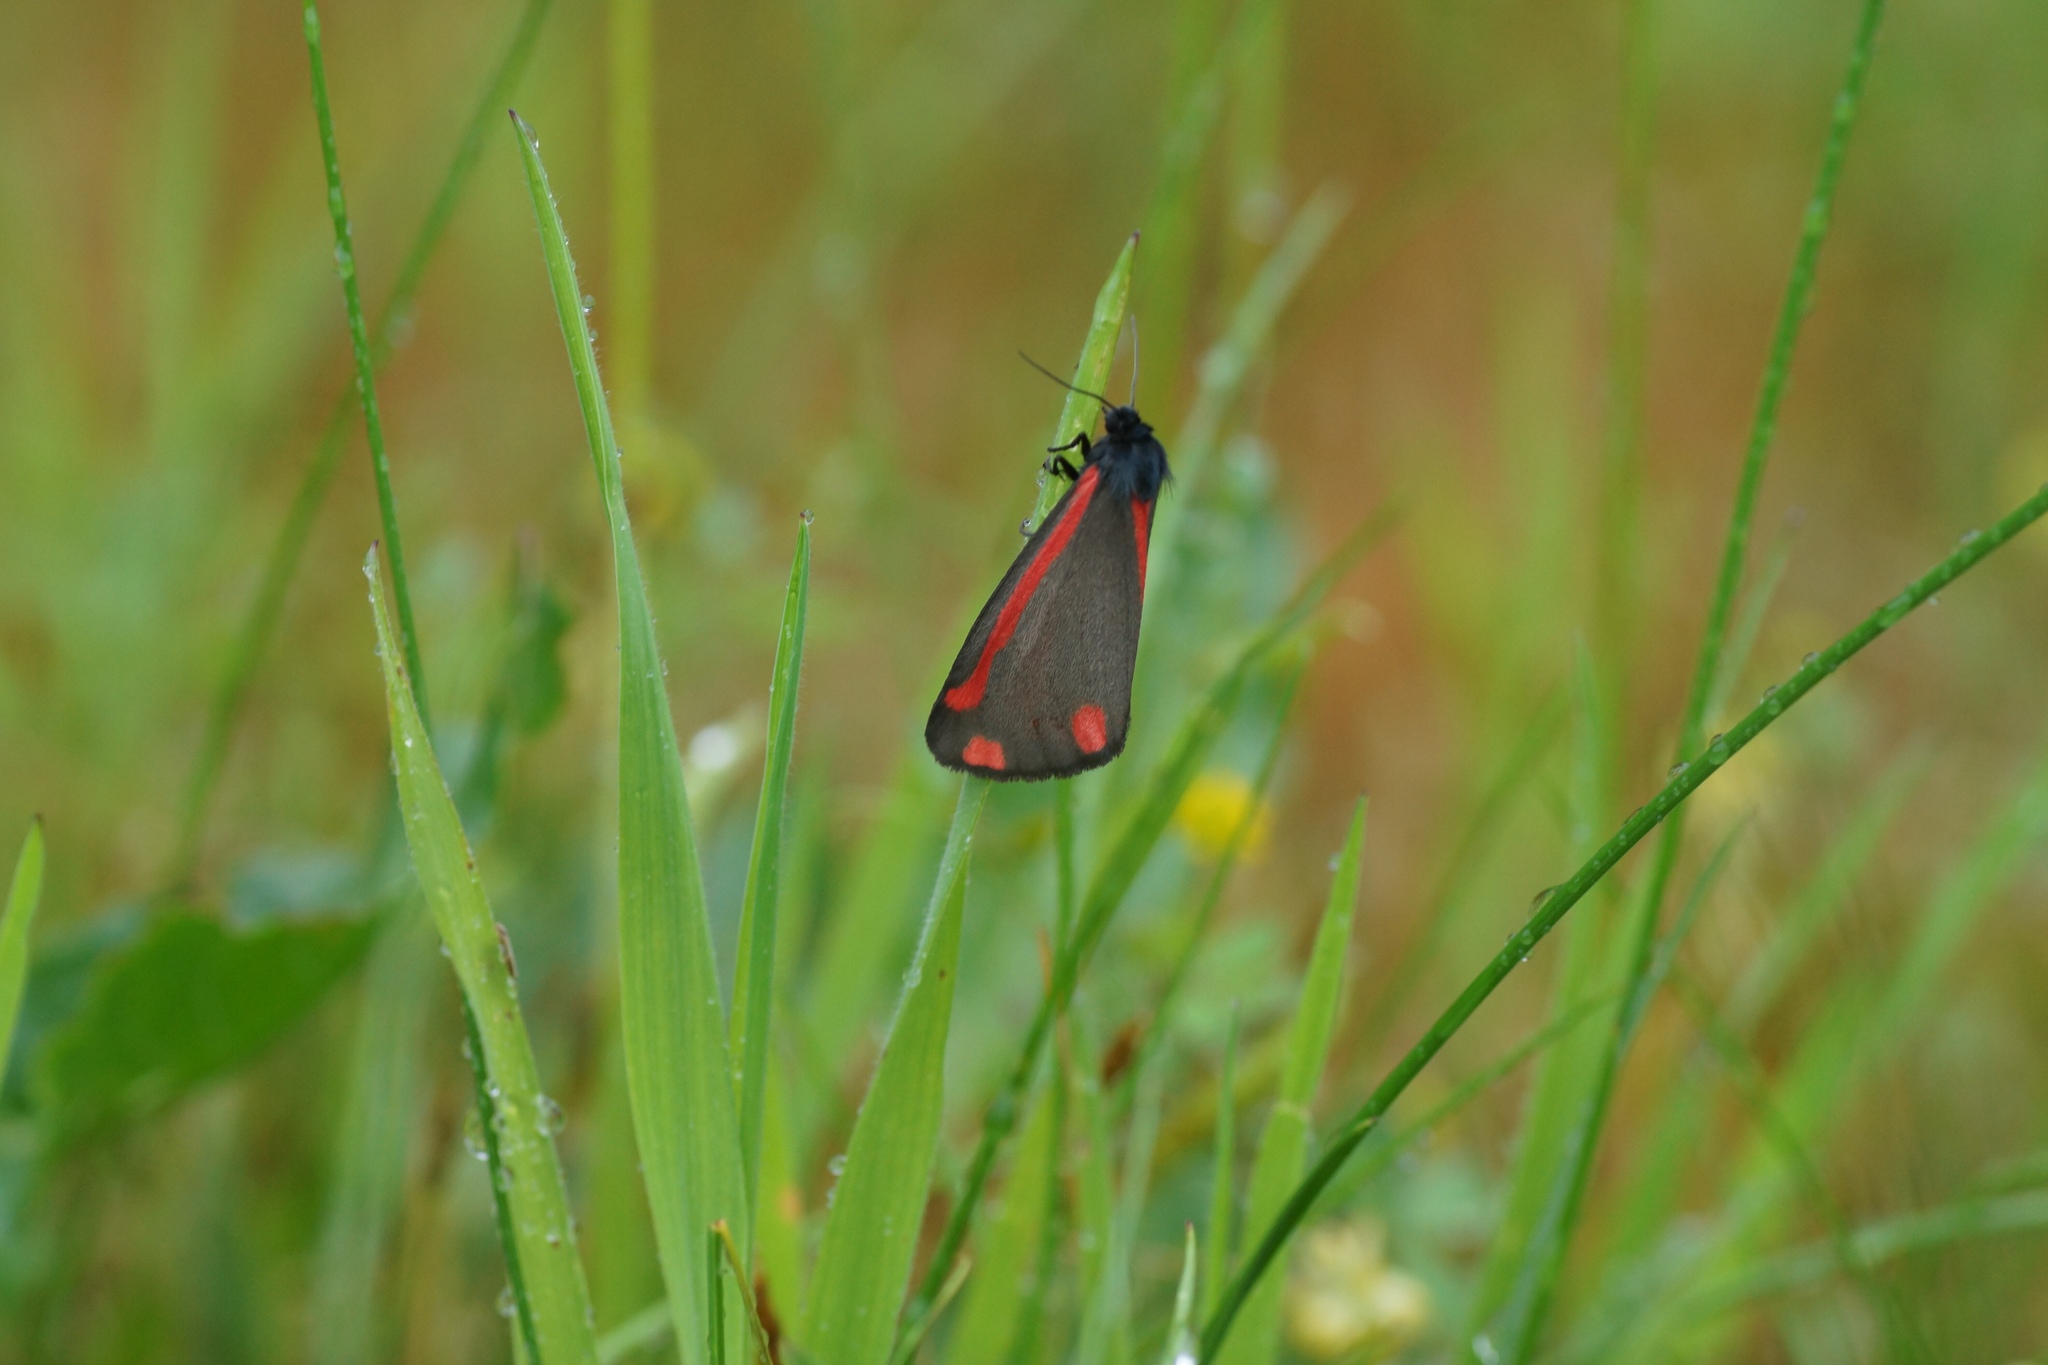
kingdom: Animalia
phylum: Arthropoda
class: Insecta
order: Lepidoptera
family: Erebidae
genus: Tyria
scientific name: Tyria jacobaeae
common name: Cinnabar
